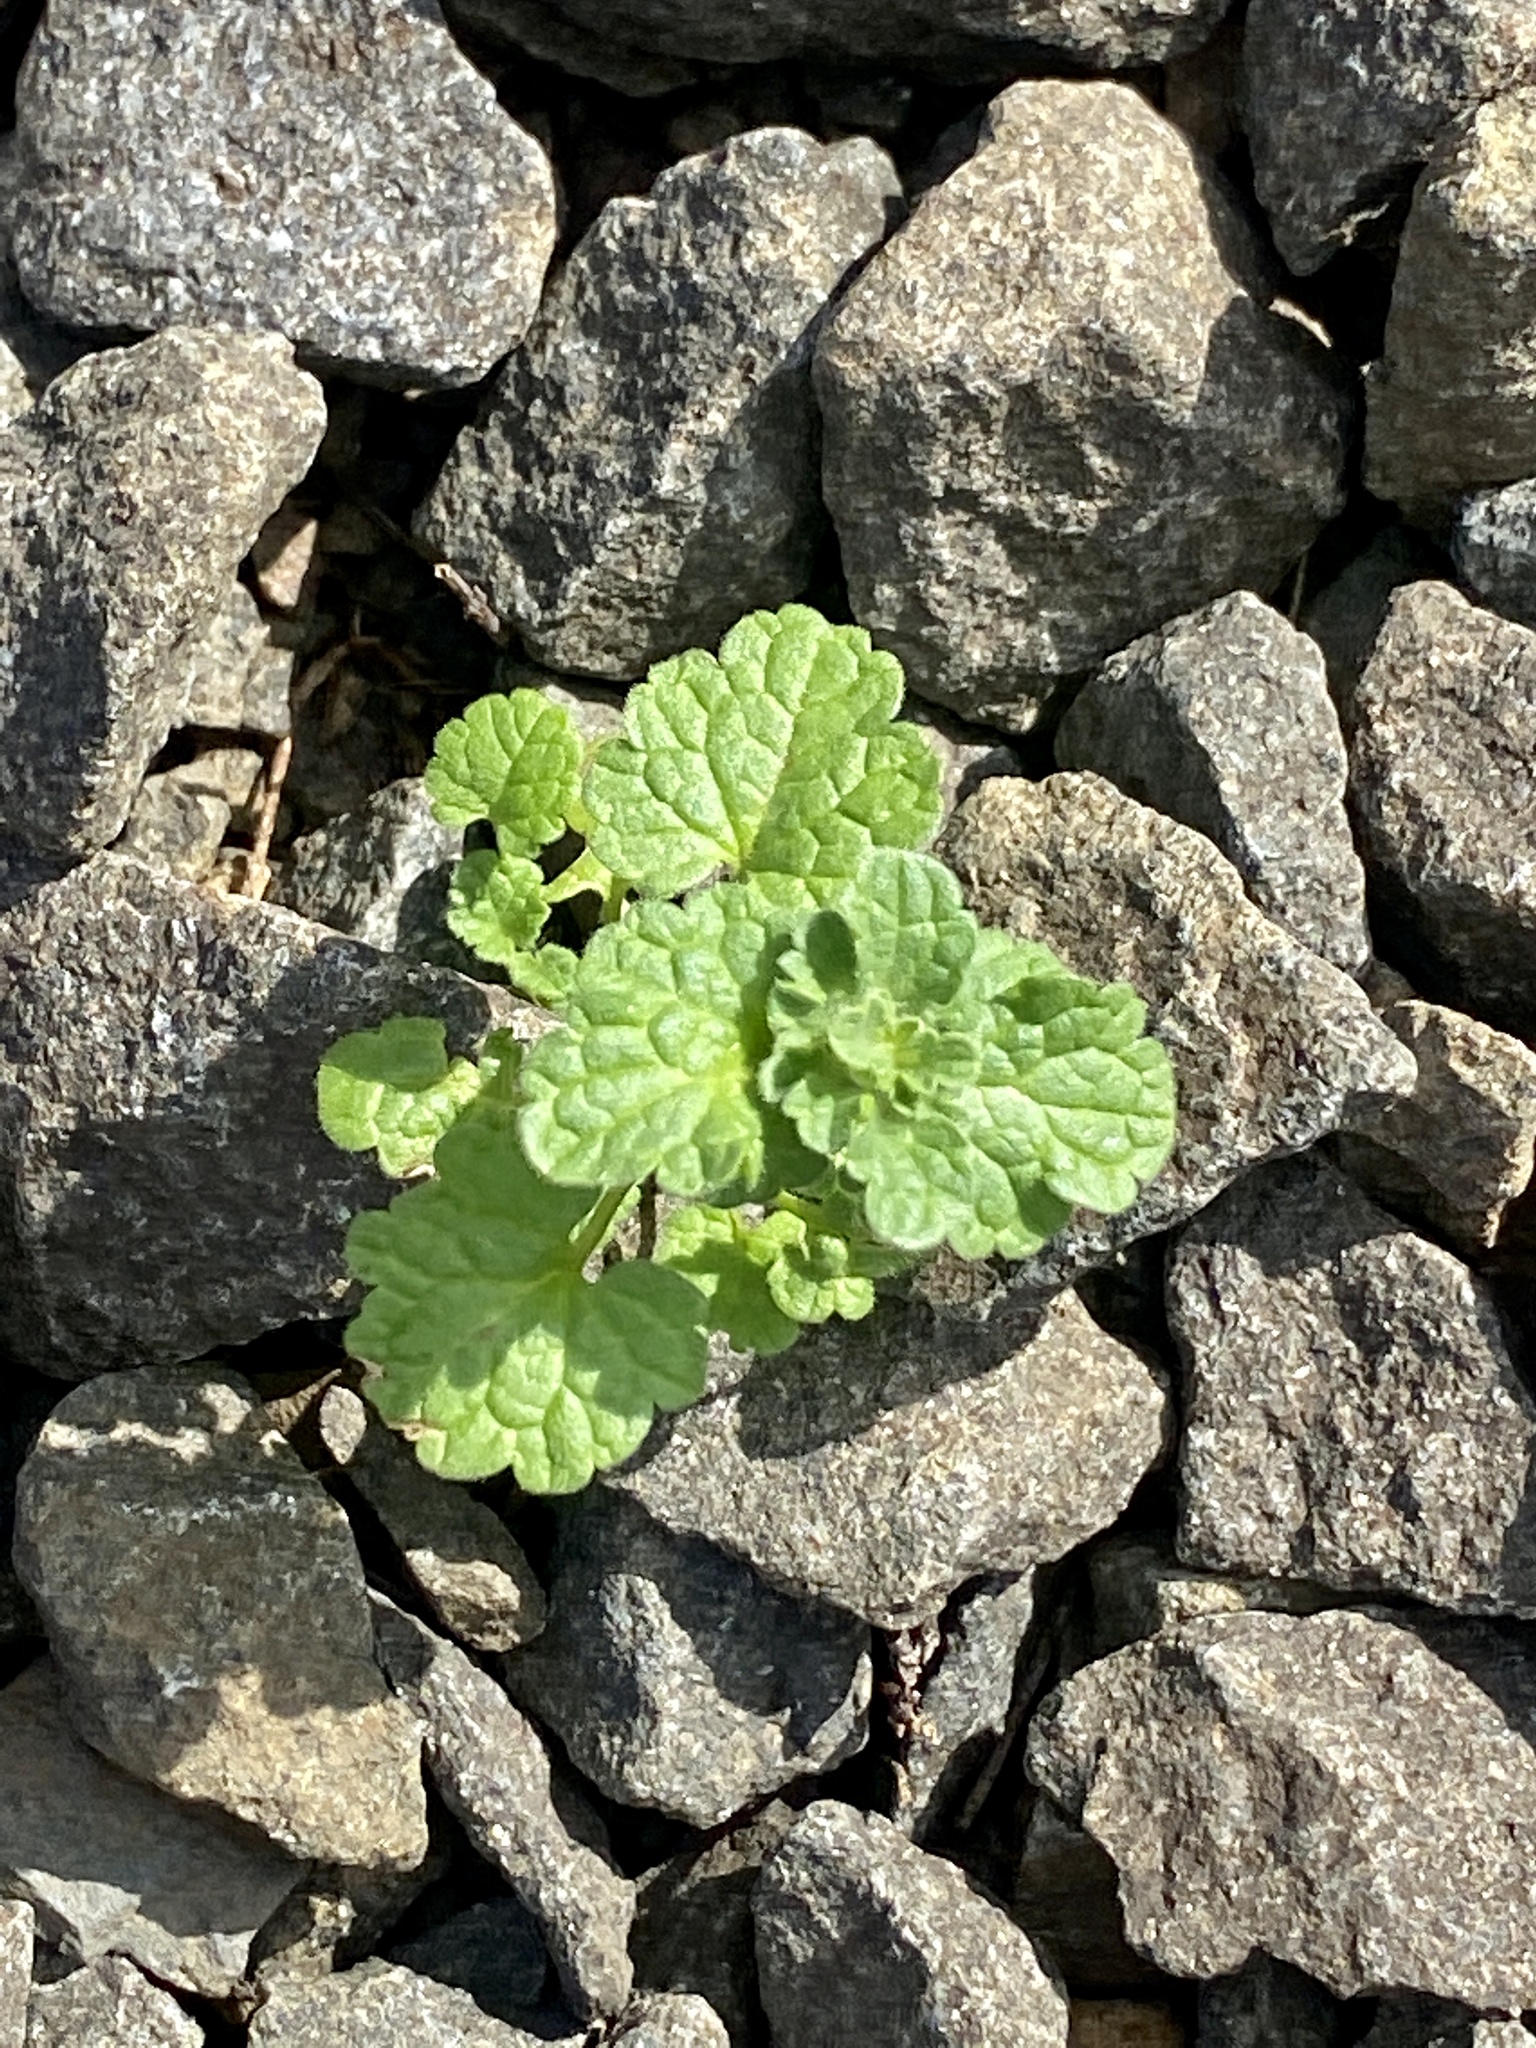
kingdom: Plantae
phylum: Tracheophyta
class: Magnoliopsida
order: Lamiales
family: Lamiaceae
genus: Lamium
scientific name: Lamium amplexicaule
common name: Henbit dead-nettle
